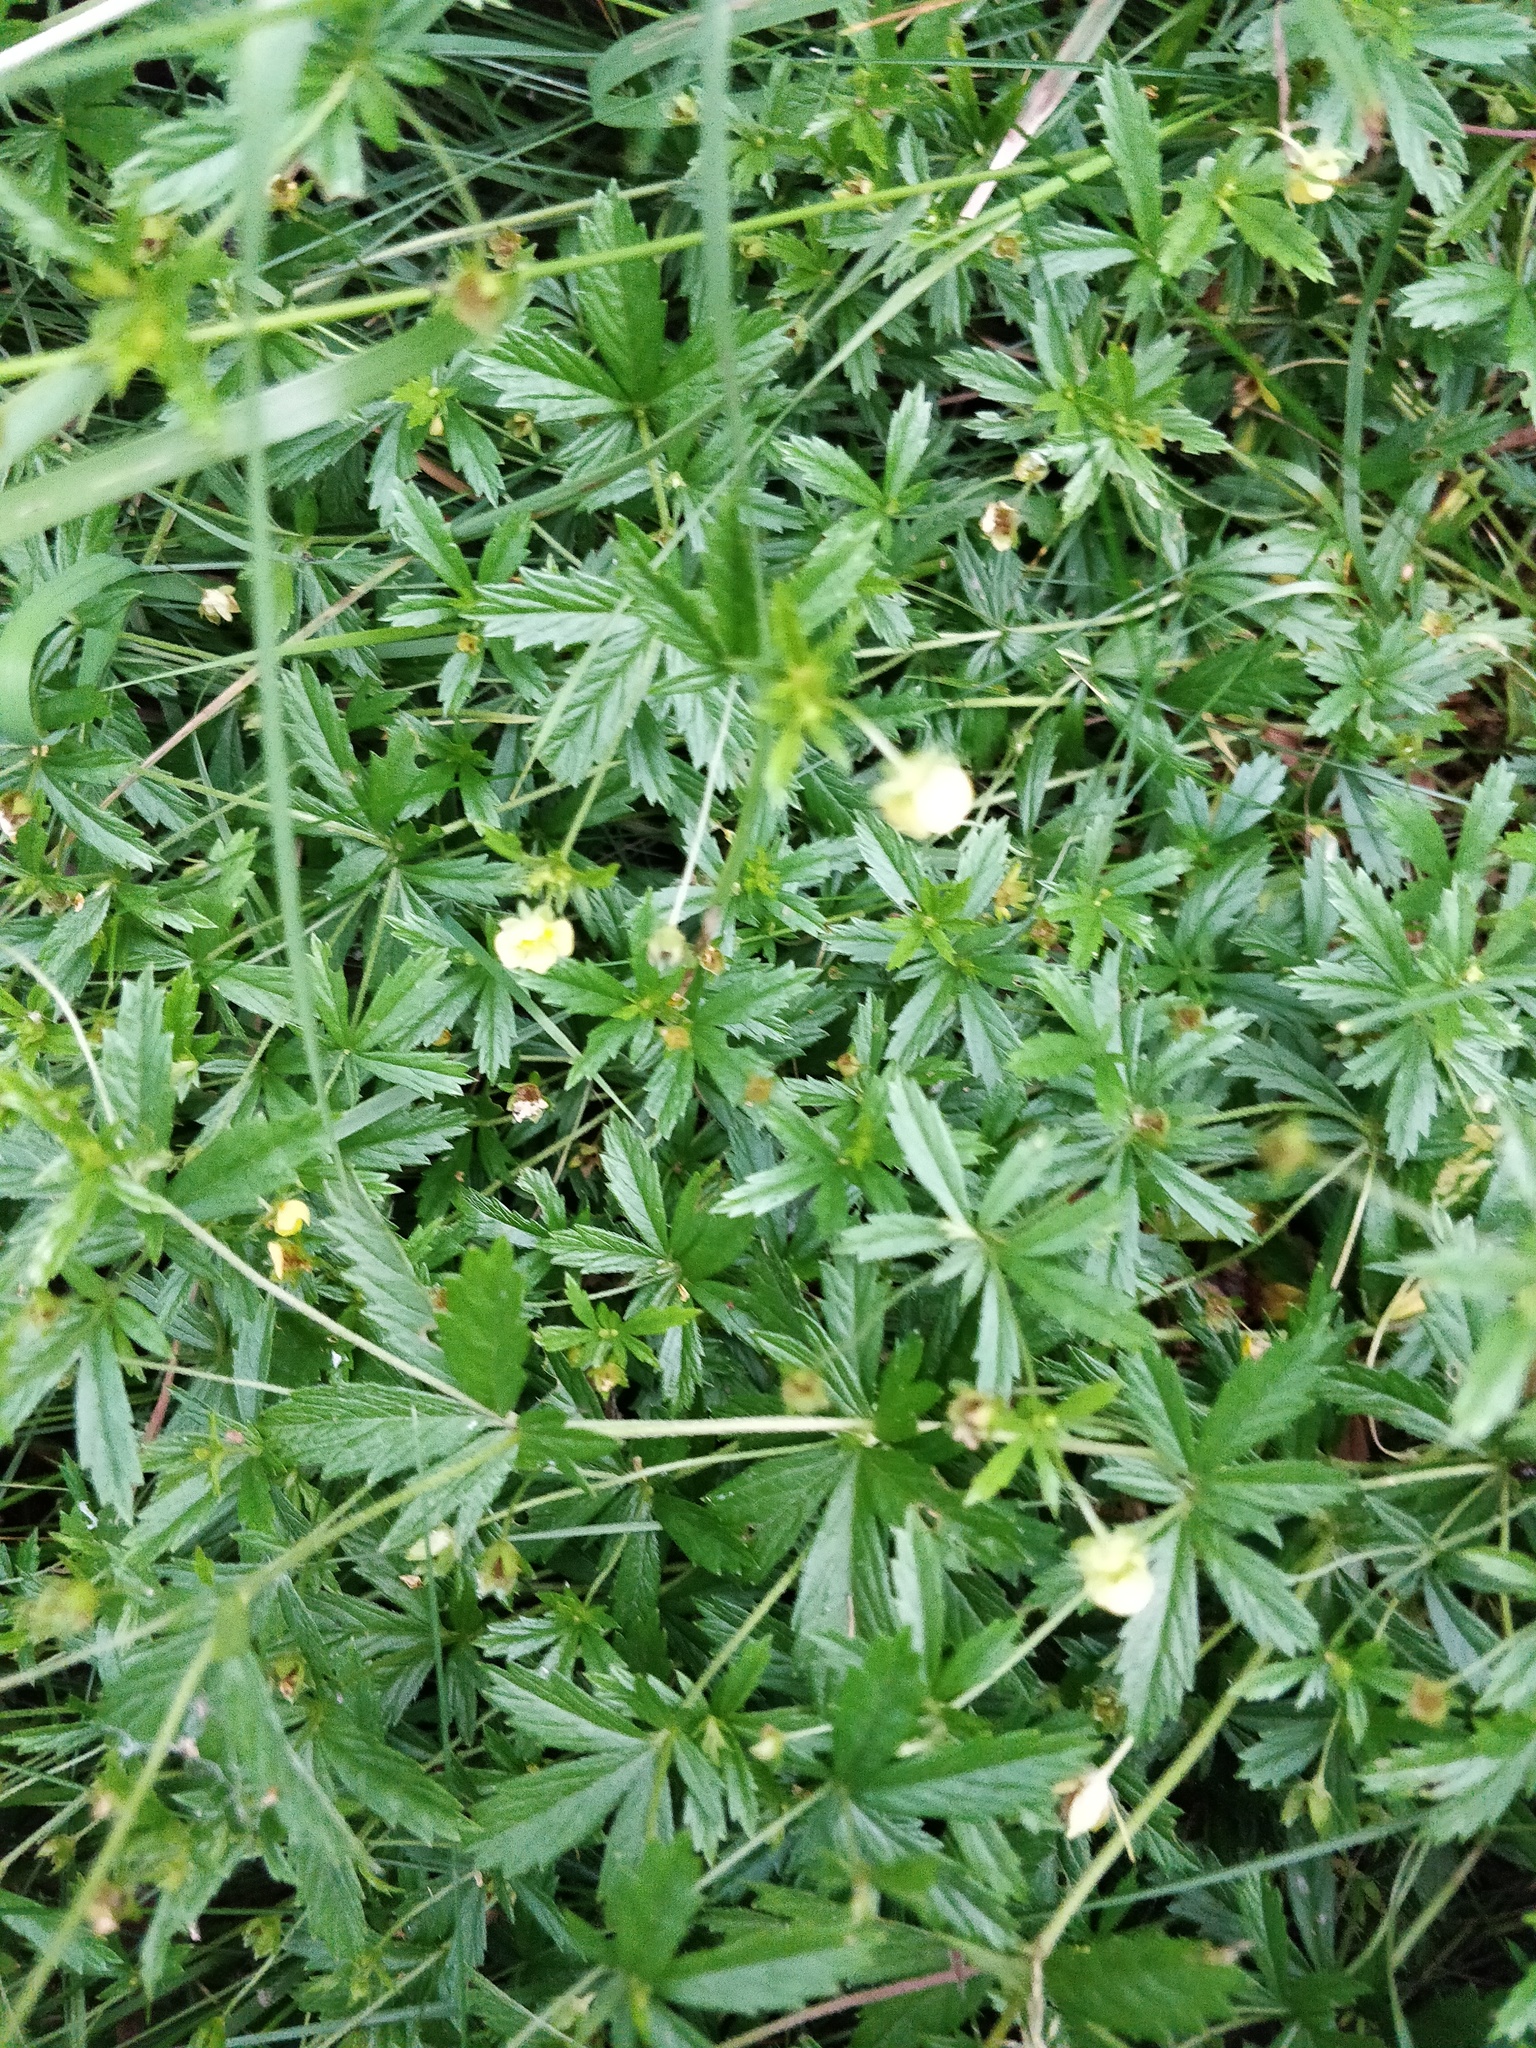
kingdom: Plantae
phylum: Tracheophyta
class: Magnoliopsida
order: Rosales
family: Rosaceae
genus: Potentilla
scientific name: Potentilla erecta
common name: Tormentil
